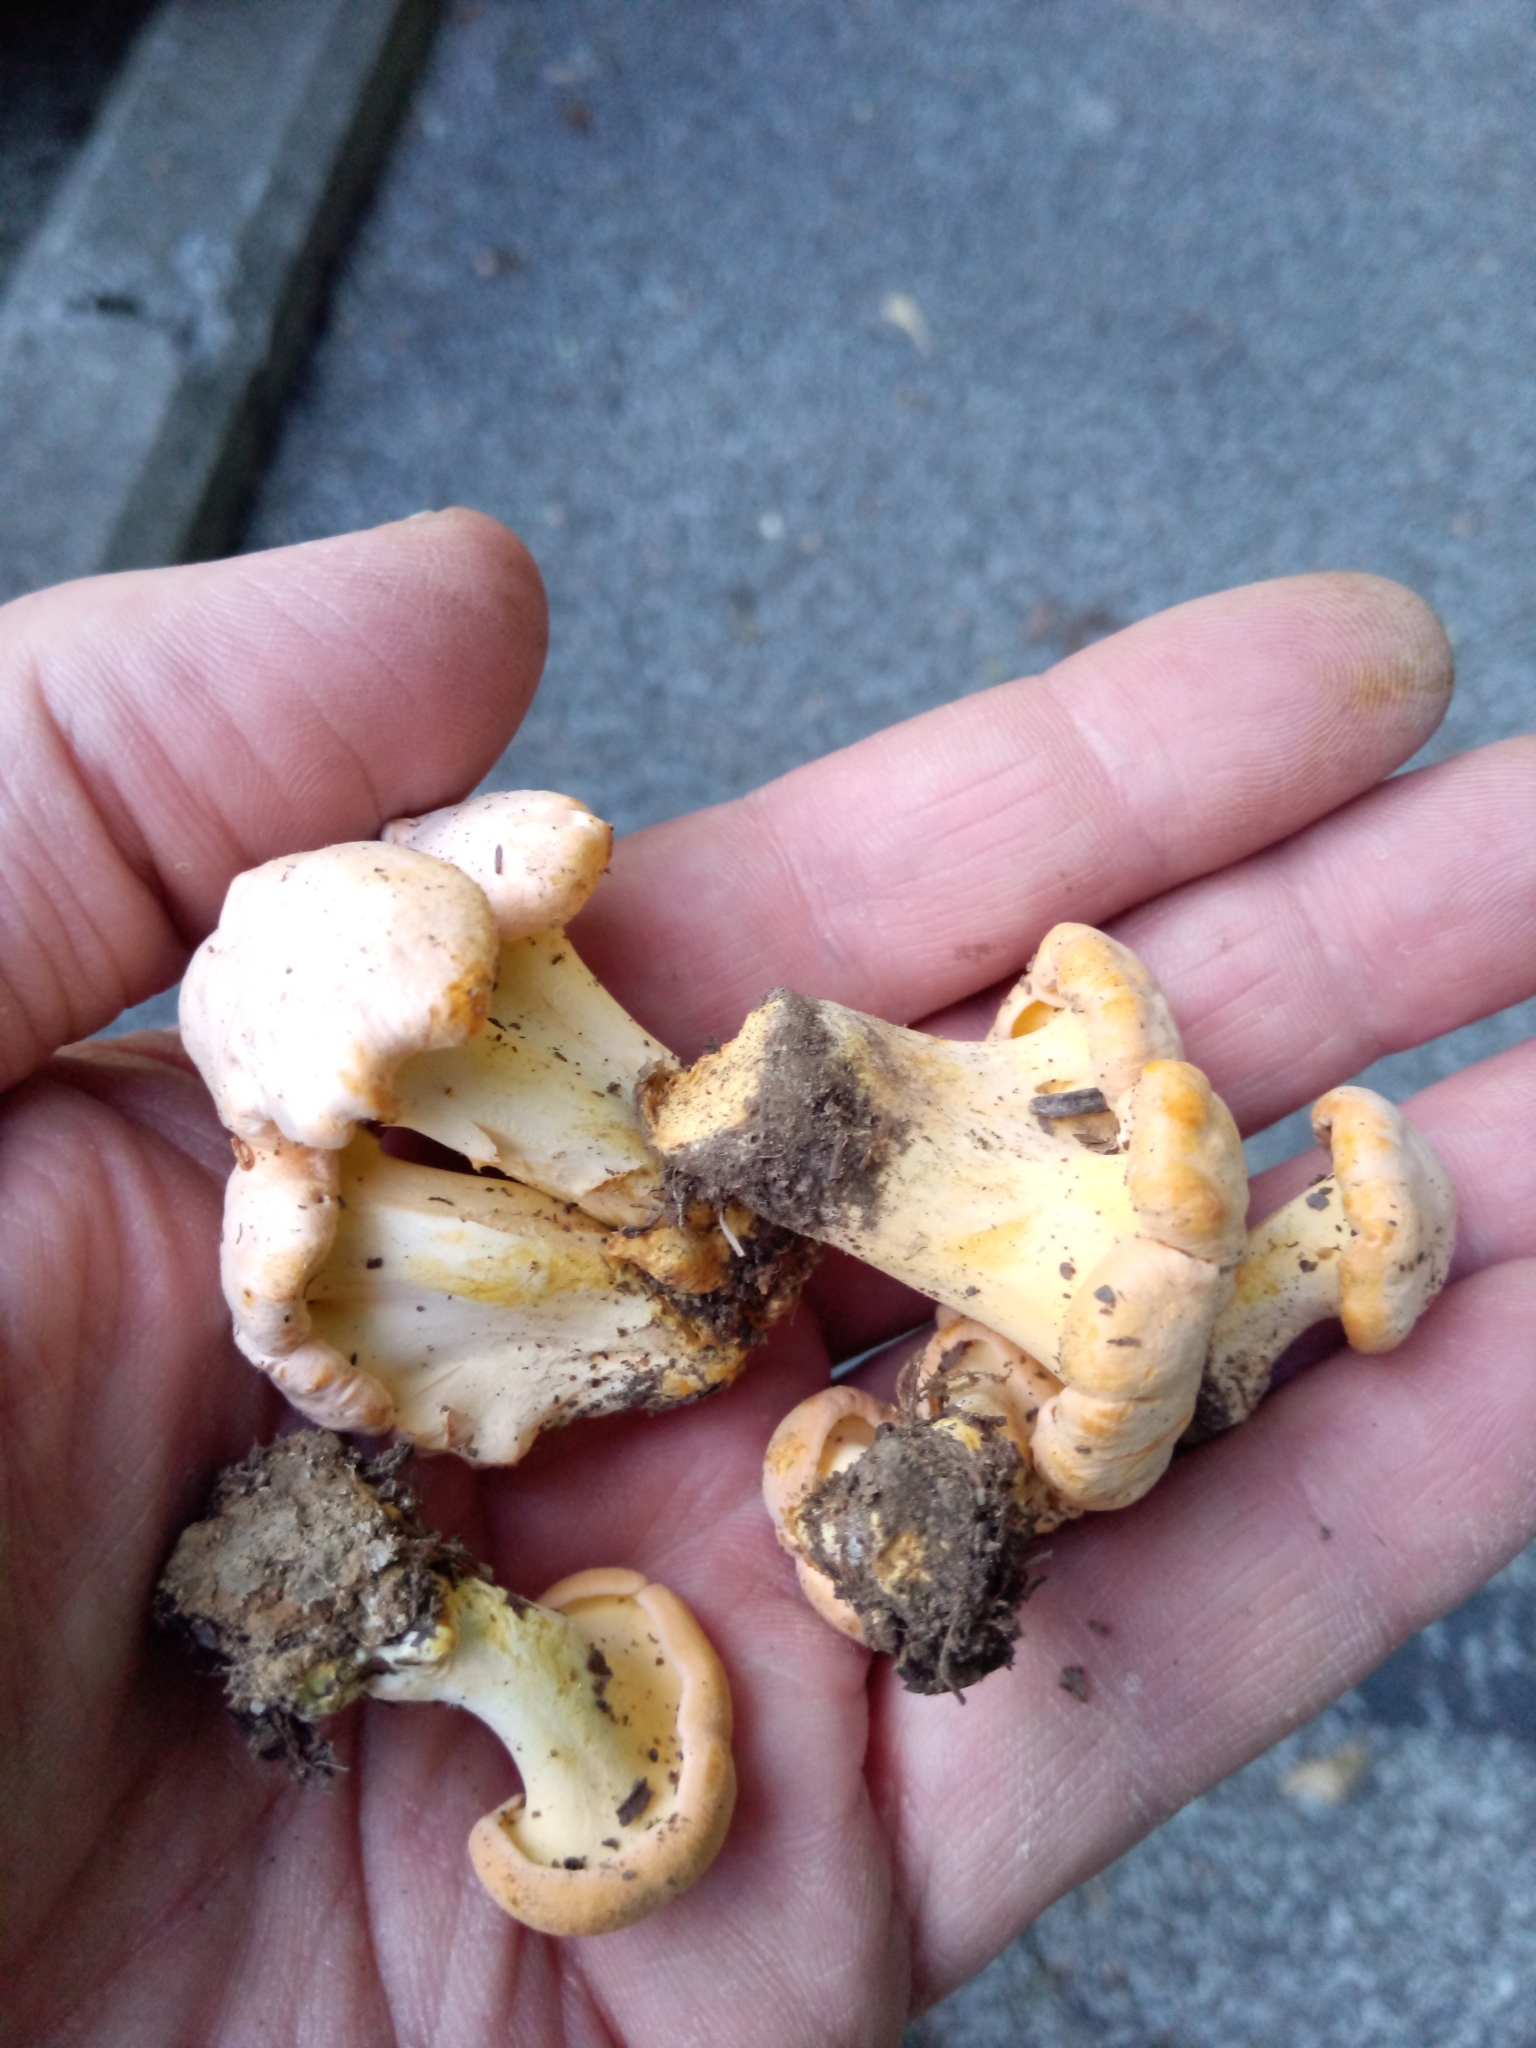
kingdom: Fungi
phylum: Basidiomycota
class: Agaricomycetes
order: Cantharellales
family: Hydnaceae
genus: Cantharellus
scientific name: Cantharellus flavolateritius
